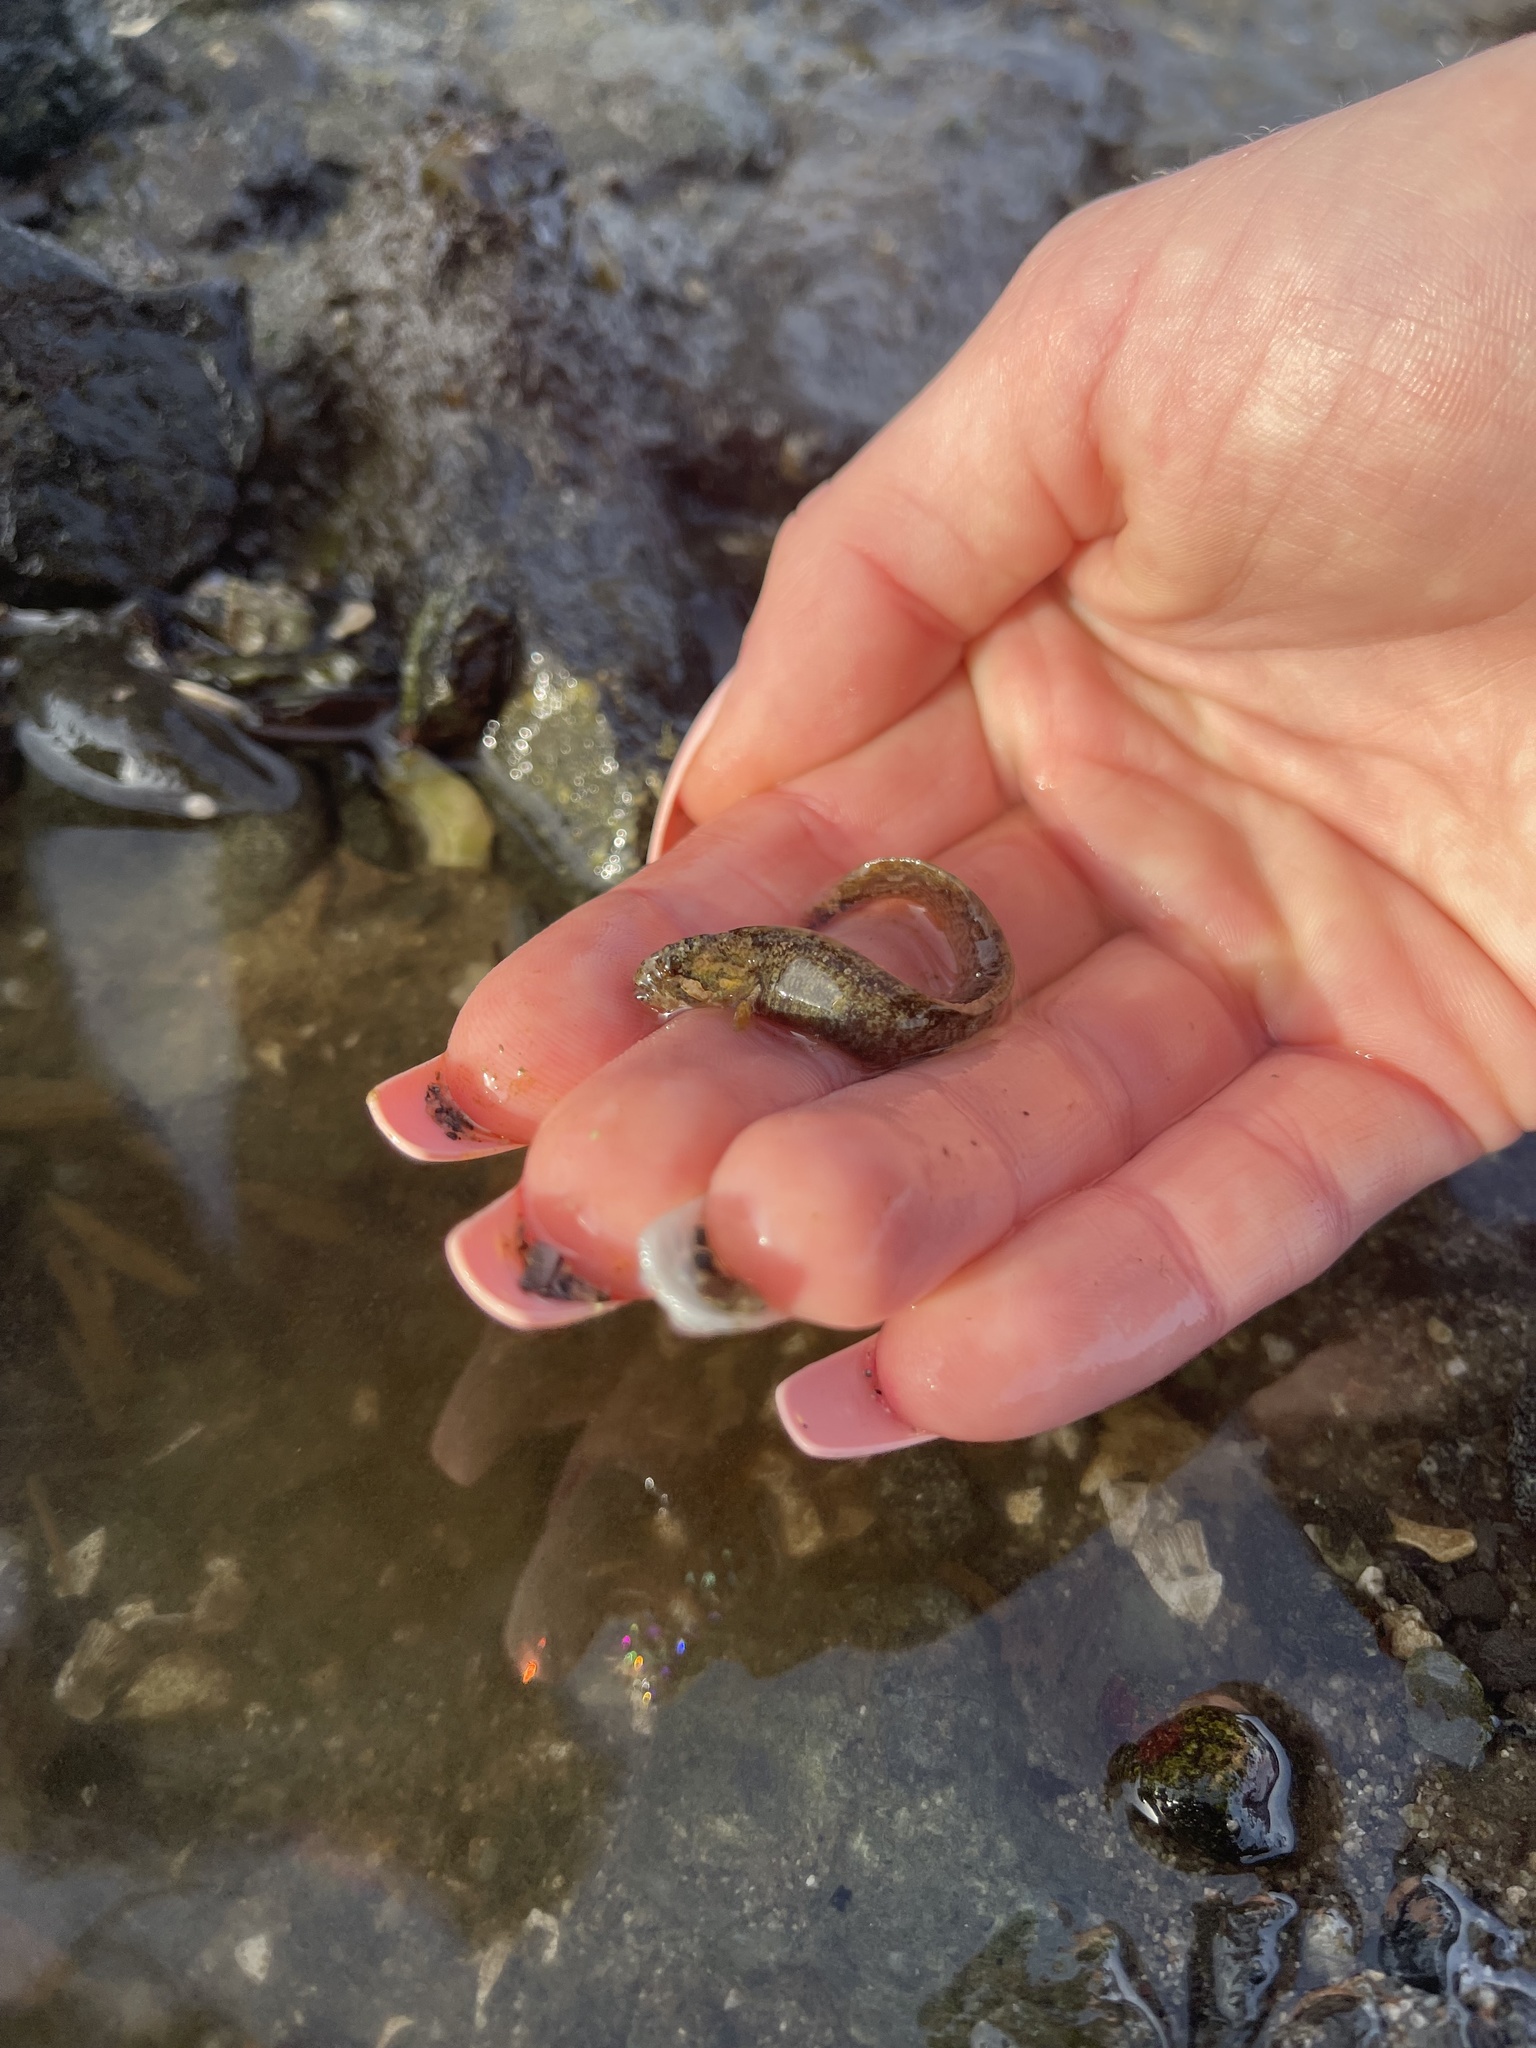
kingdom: Animalia
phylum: Chordata
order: Perciformes
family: Stichaeidae
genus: Anoplarchus
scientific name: Anoplarchus purpurescens
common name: High cockscomb
